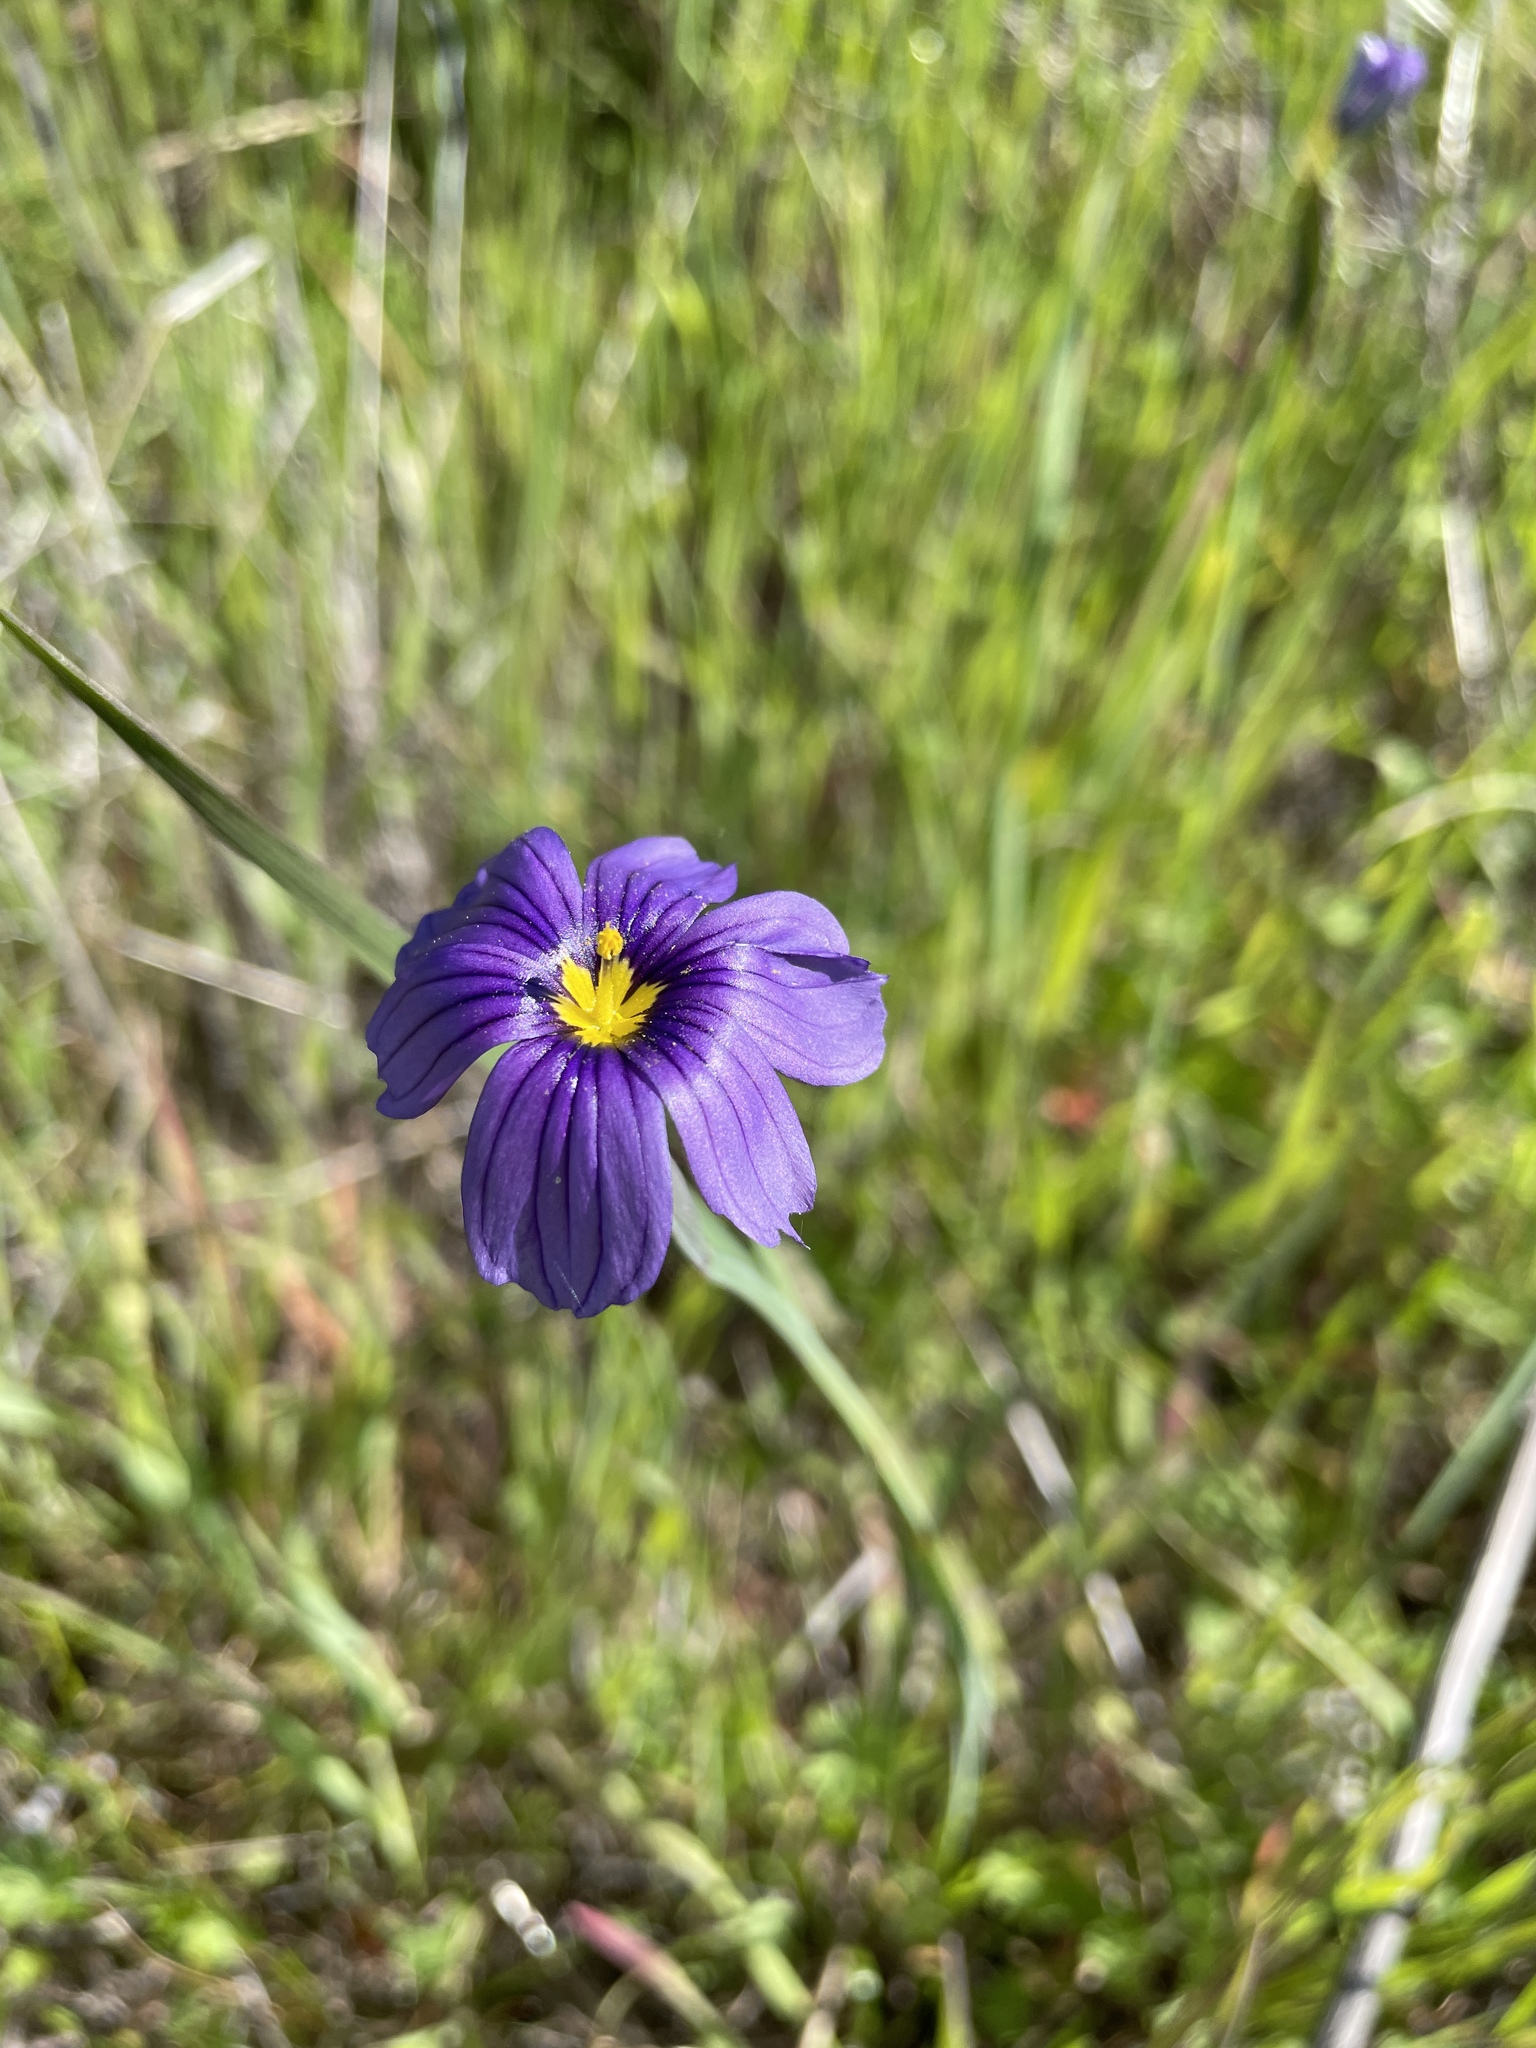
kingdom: Plantae
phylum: Tracheophyta
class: Liliopsida
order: Asparagales
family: Iridaceae
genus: Sisyrinchium
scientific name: Sisyrinchium bellum
